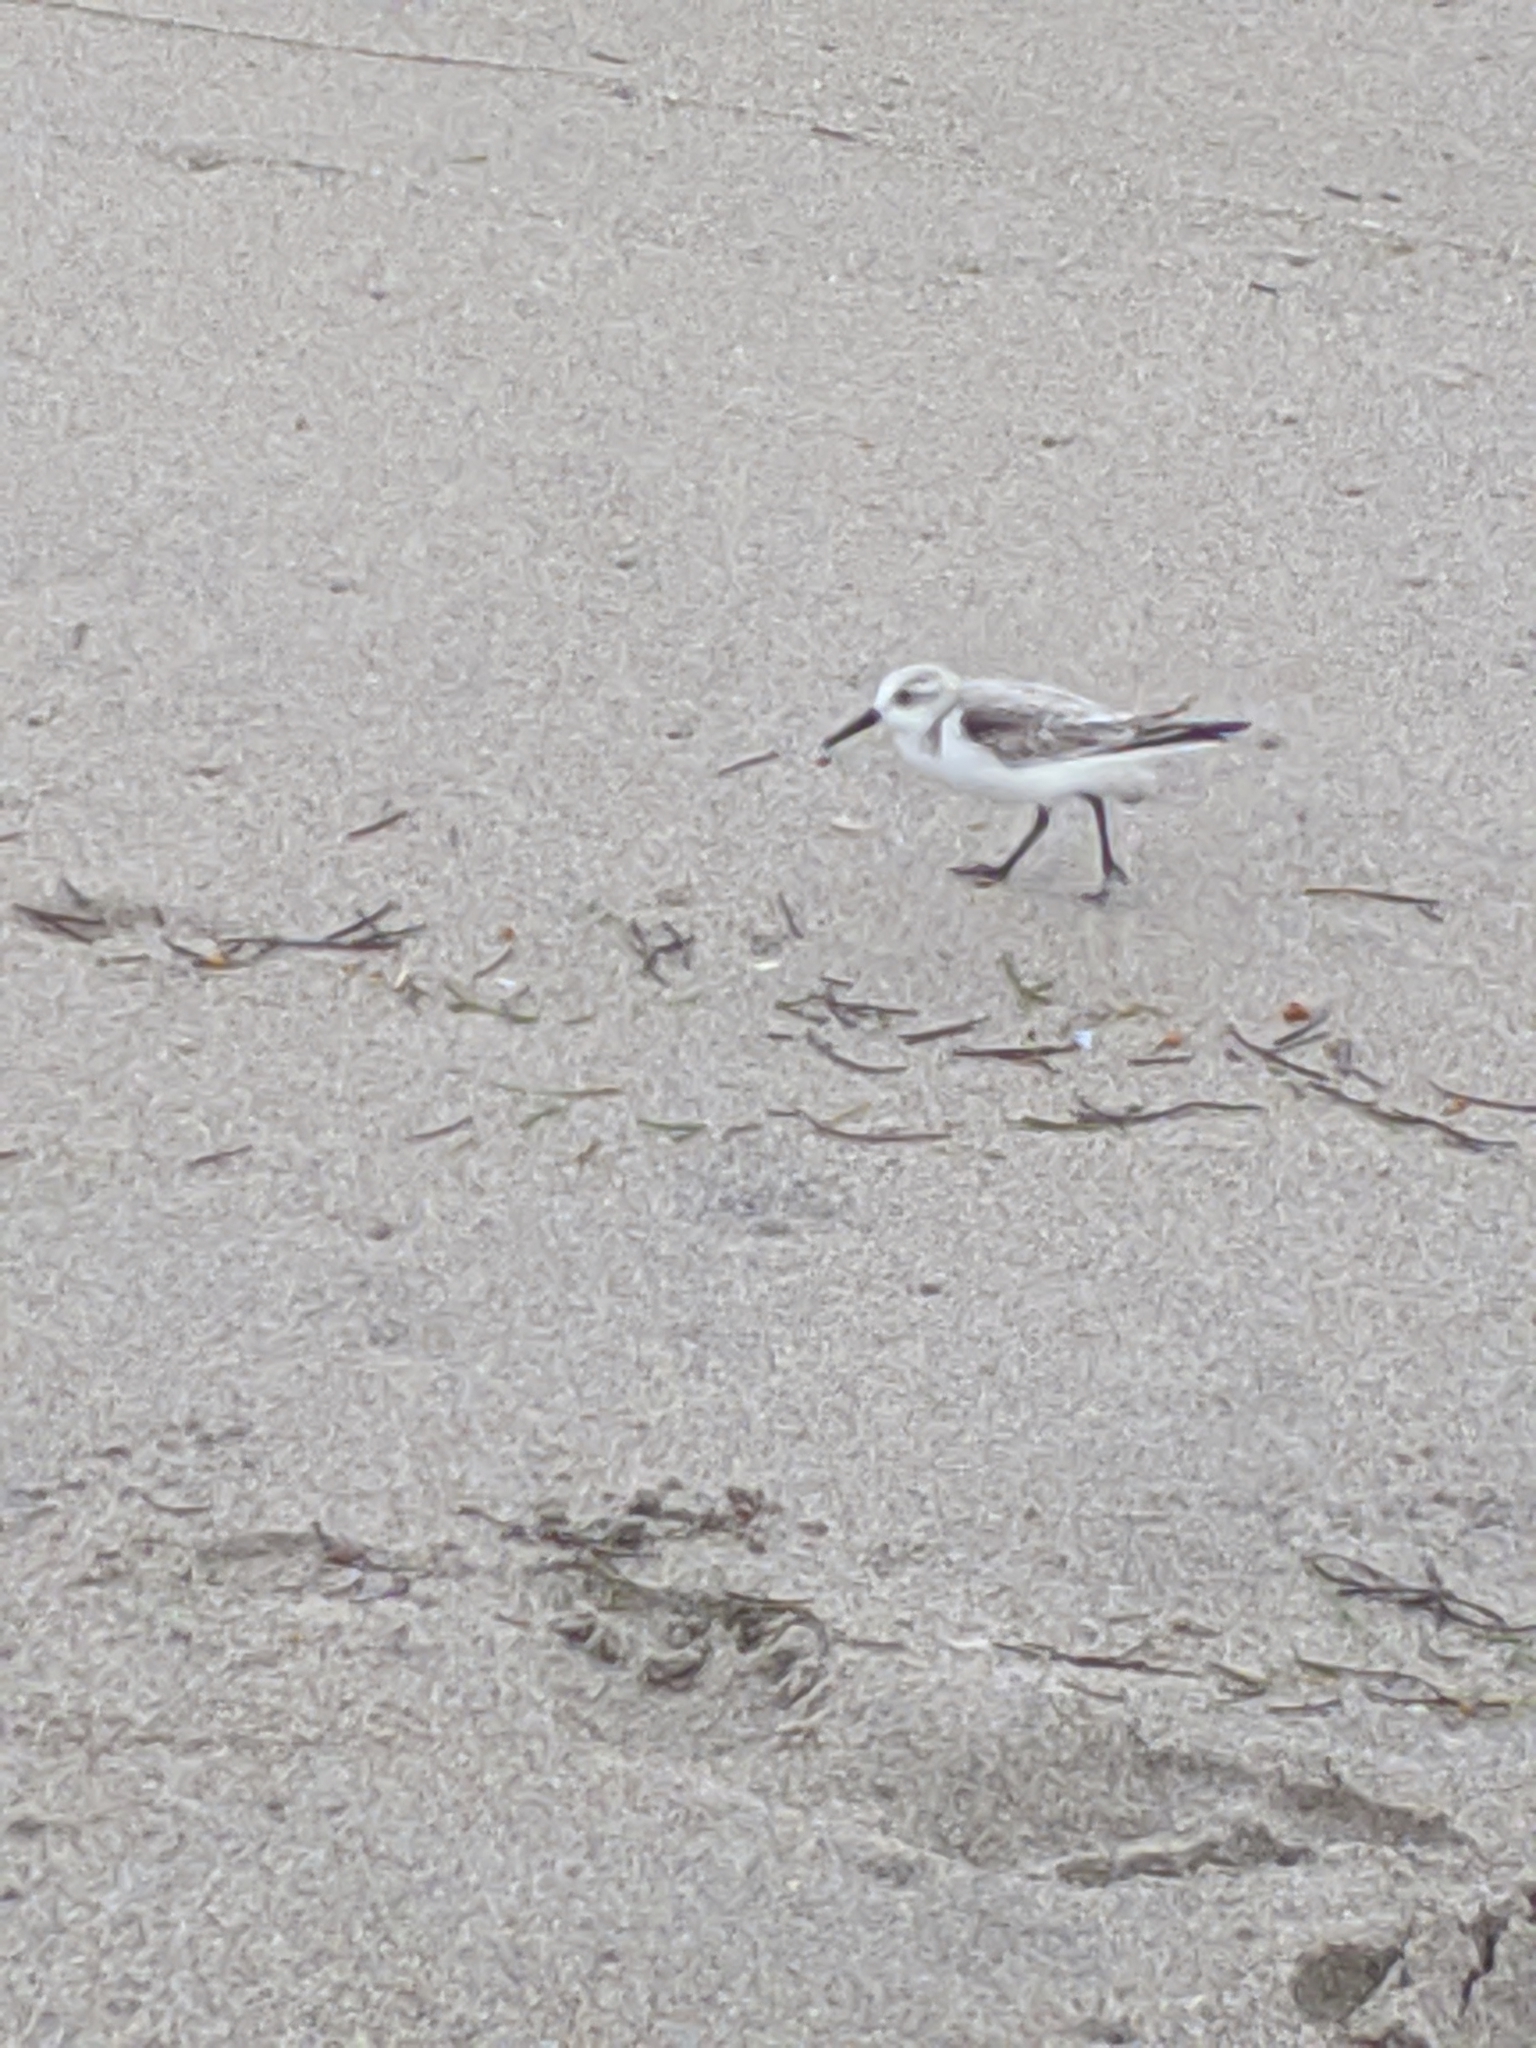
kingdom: Animalia
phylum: Chordata
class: Aves
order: Charadriiformes
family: Scolopacidae
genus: Calidris
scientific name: Calidris alba
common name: Sanderling
